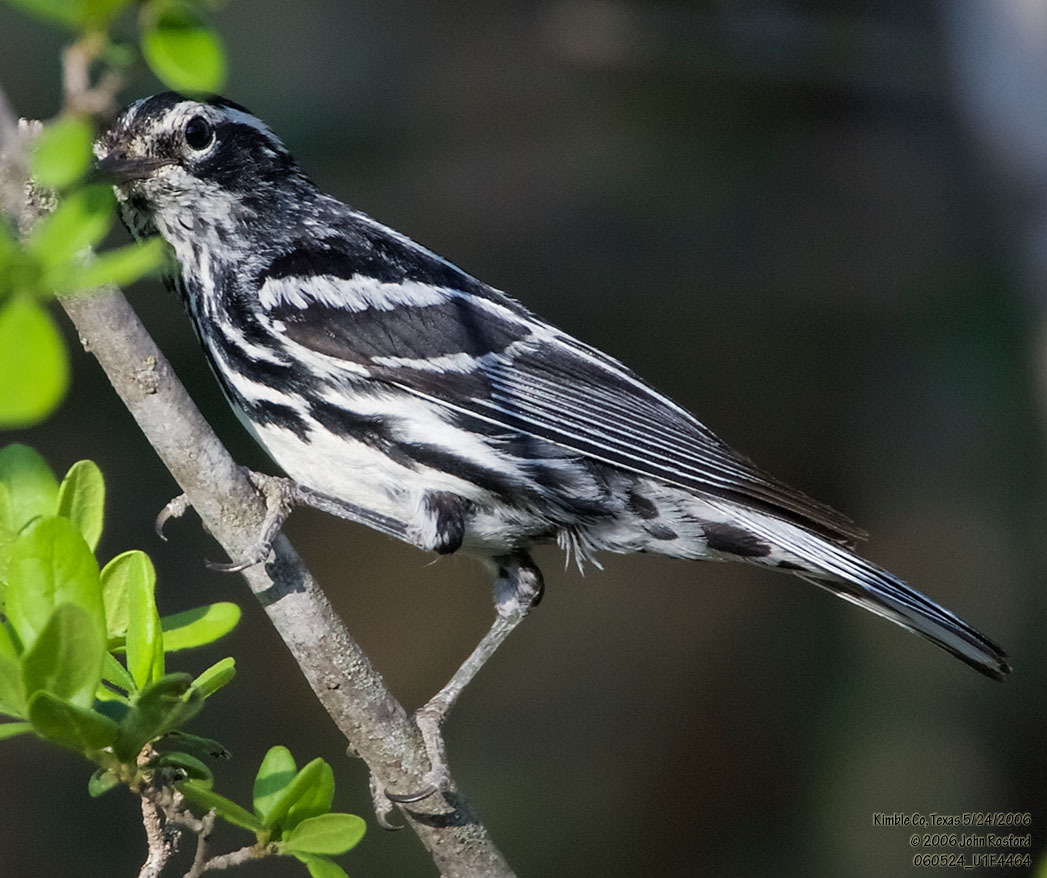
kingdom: Animalia
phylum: Chordata
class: Aves
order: Passeriformes
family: Parulidae
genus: Mniotilta
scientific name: Mniotilta varia
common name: Black-and-white warbler
